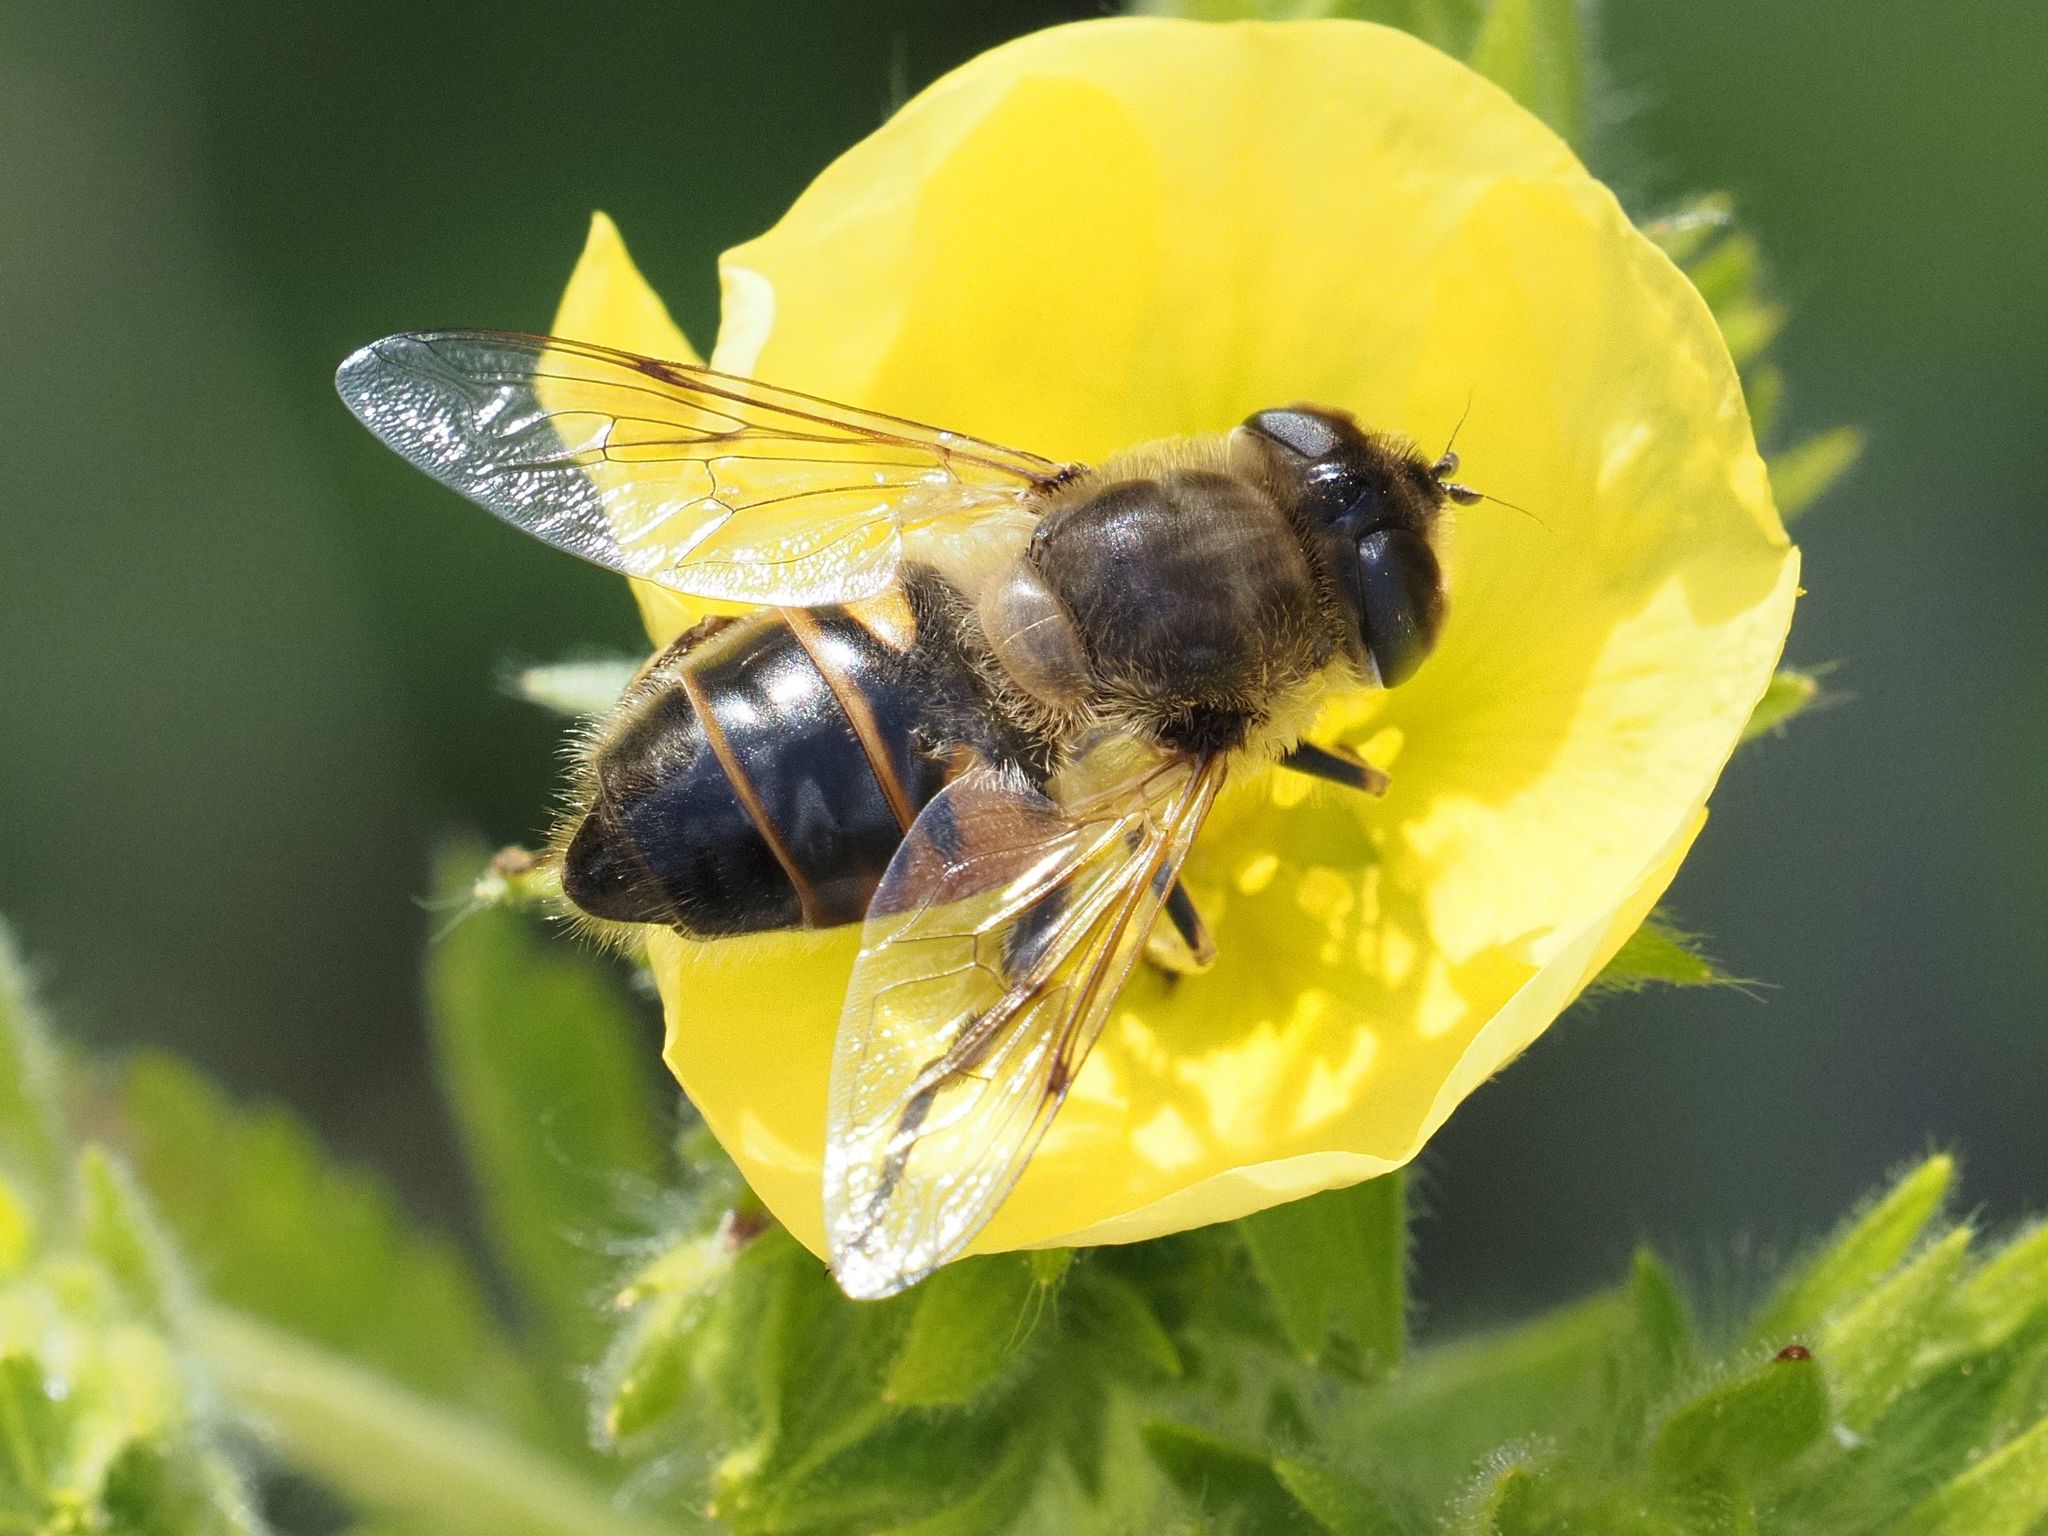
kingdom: Animalia
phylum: Arthropoda
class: Insecta
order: Diptera
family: Syrphidae
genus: Eristalis
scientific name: Eristalis tenax
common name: Drone fly
